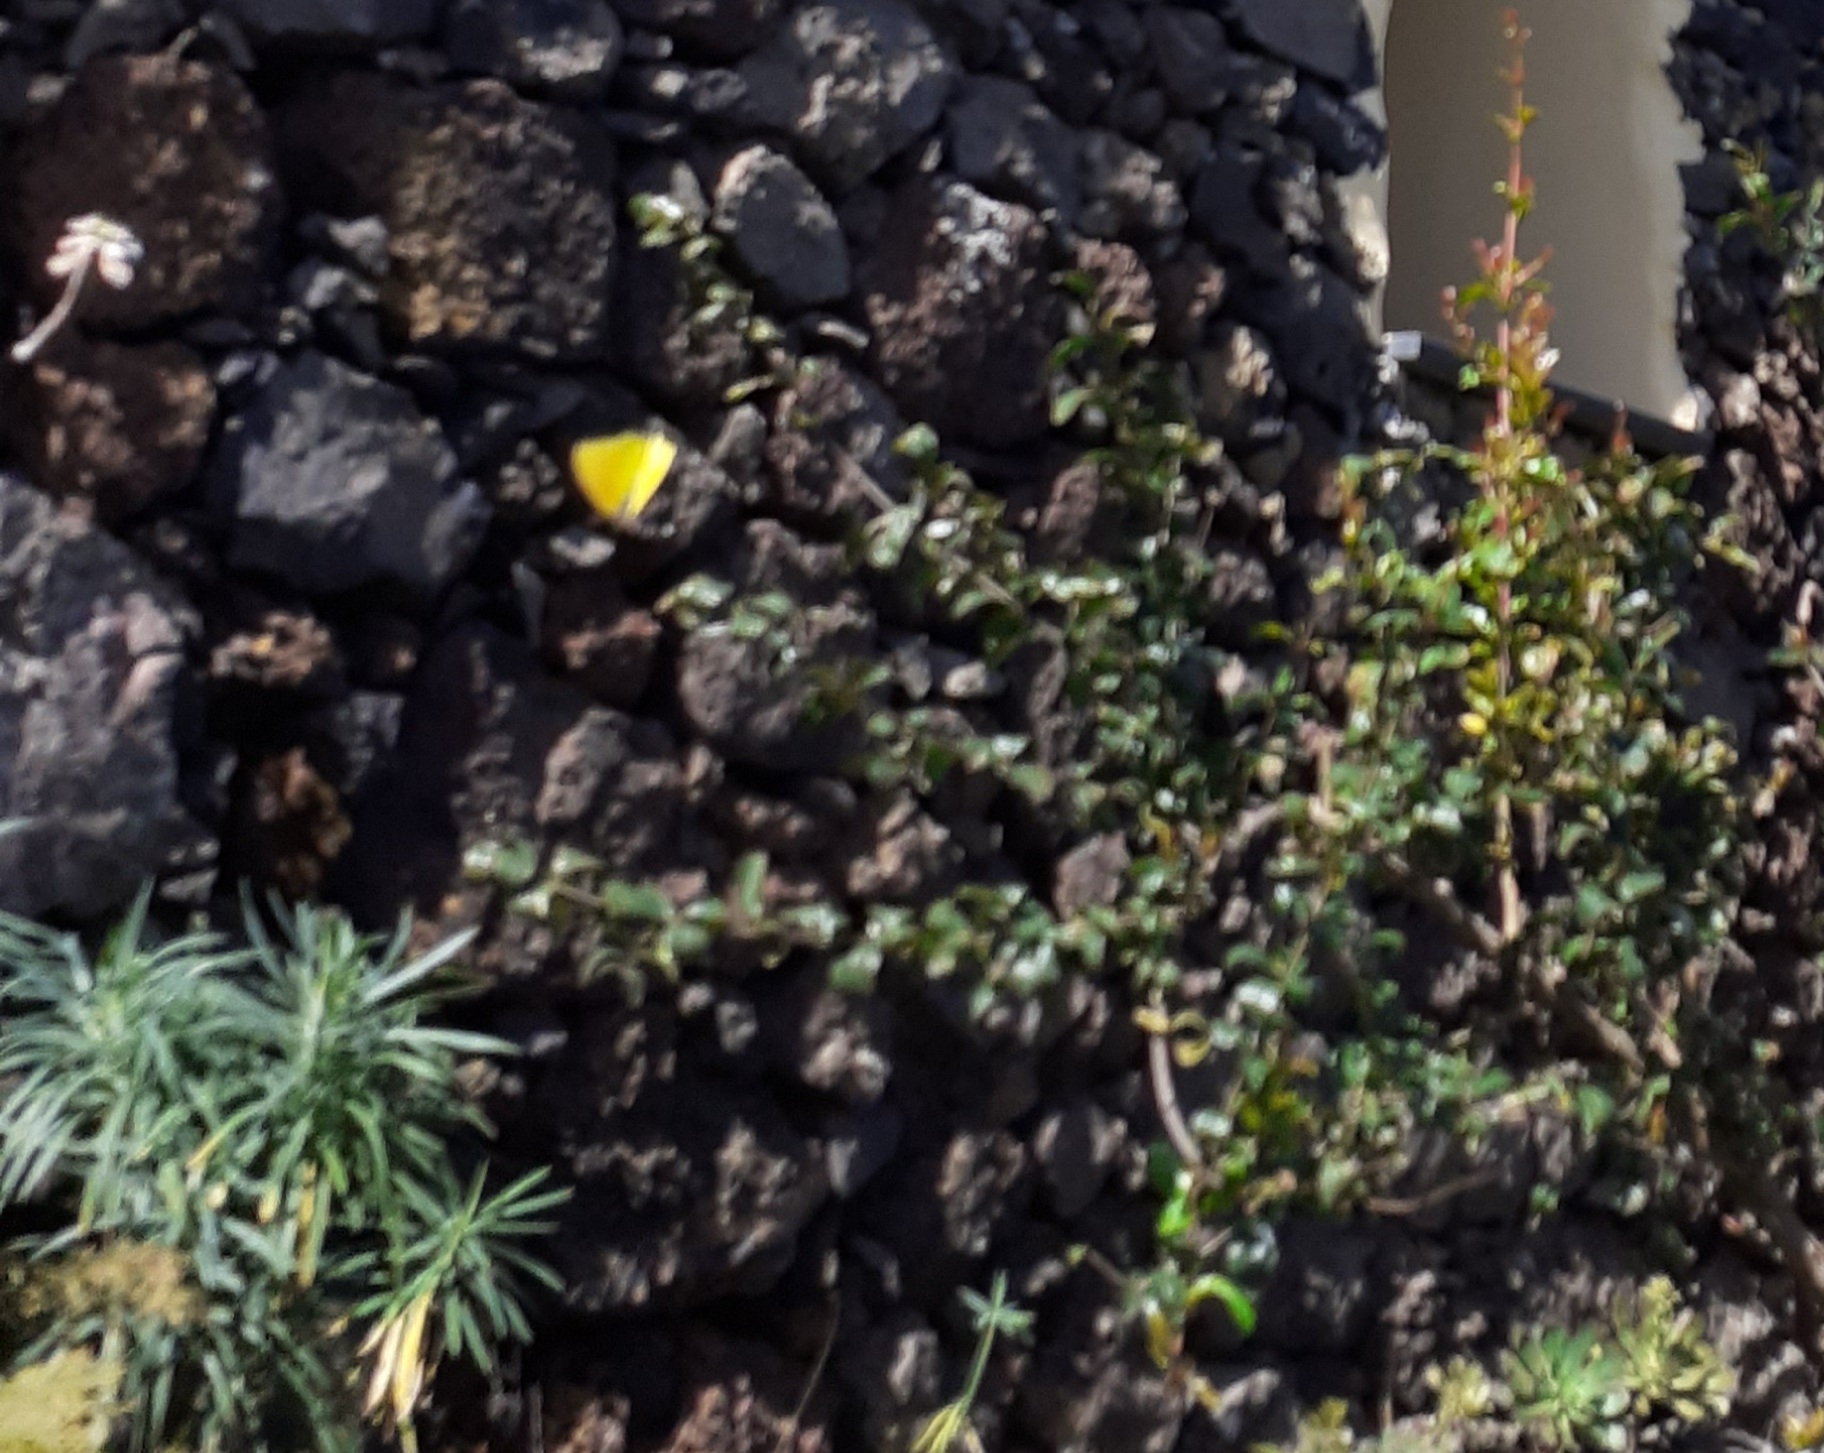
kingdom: Animalia
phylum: Arthropoda
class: Insecta
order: Lepidoptera
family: Pieridae
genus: Gonepteryx
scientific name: Gonepteryx cleobule
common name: Canary brimstone
